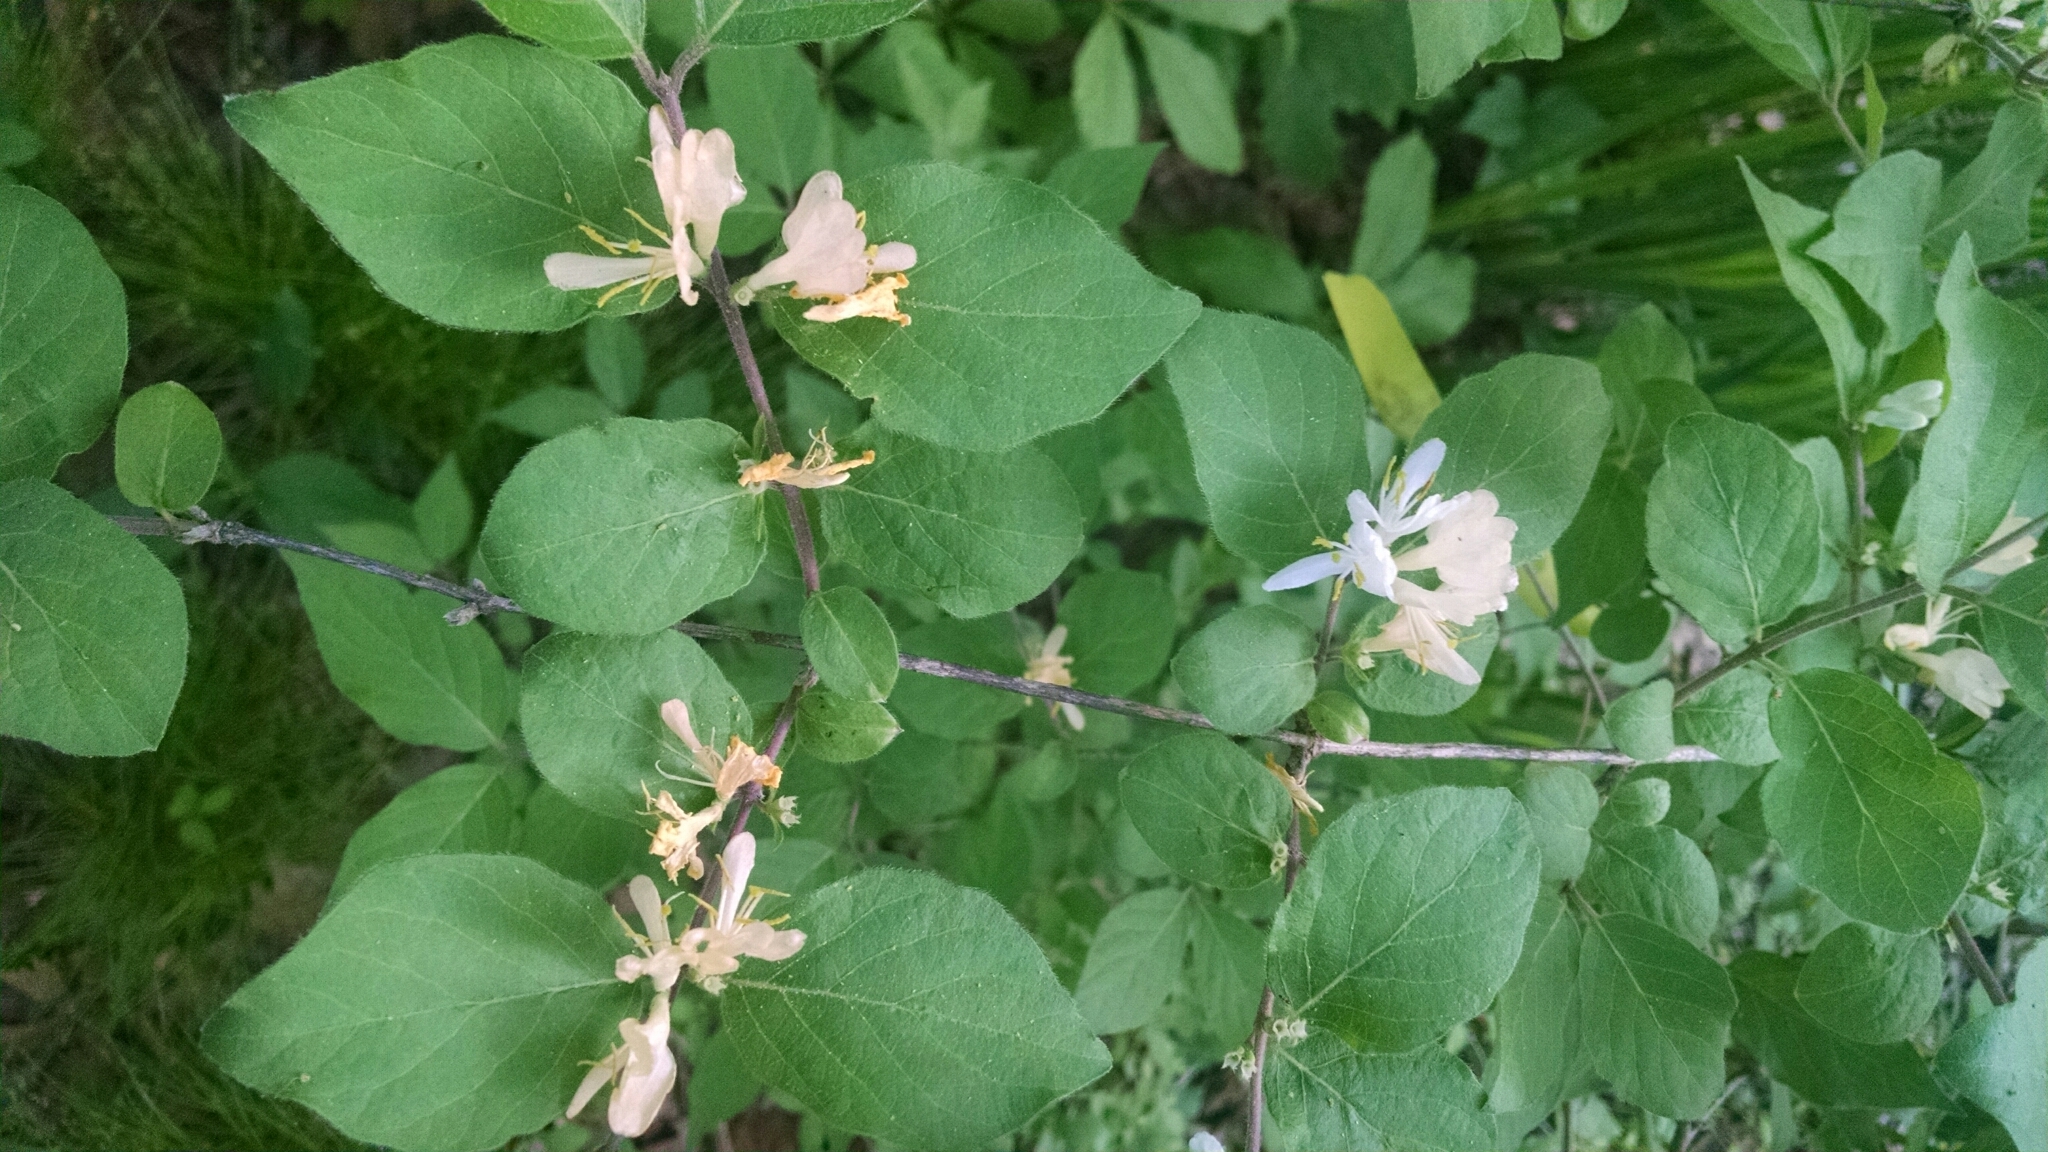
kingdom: Plantae
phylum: Tracheophyta
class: Magnoliopsida
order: Dipsacales
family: Caprifoliaceae
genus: Lonicera
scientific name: Lonicera maackii
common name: Amur honeysuckle
